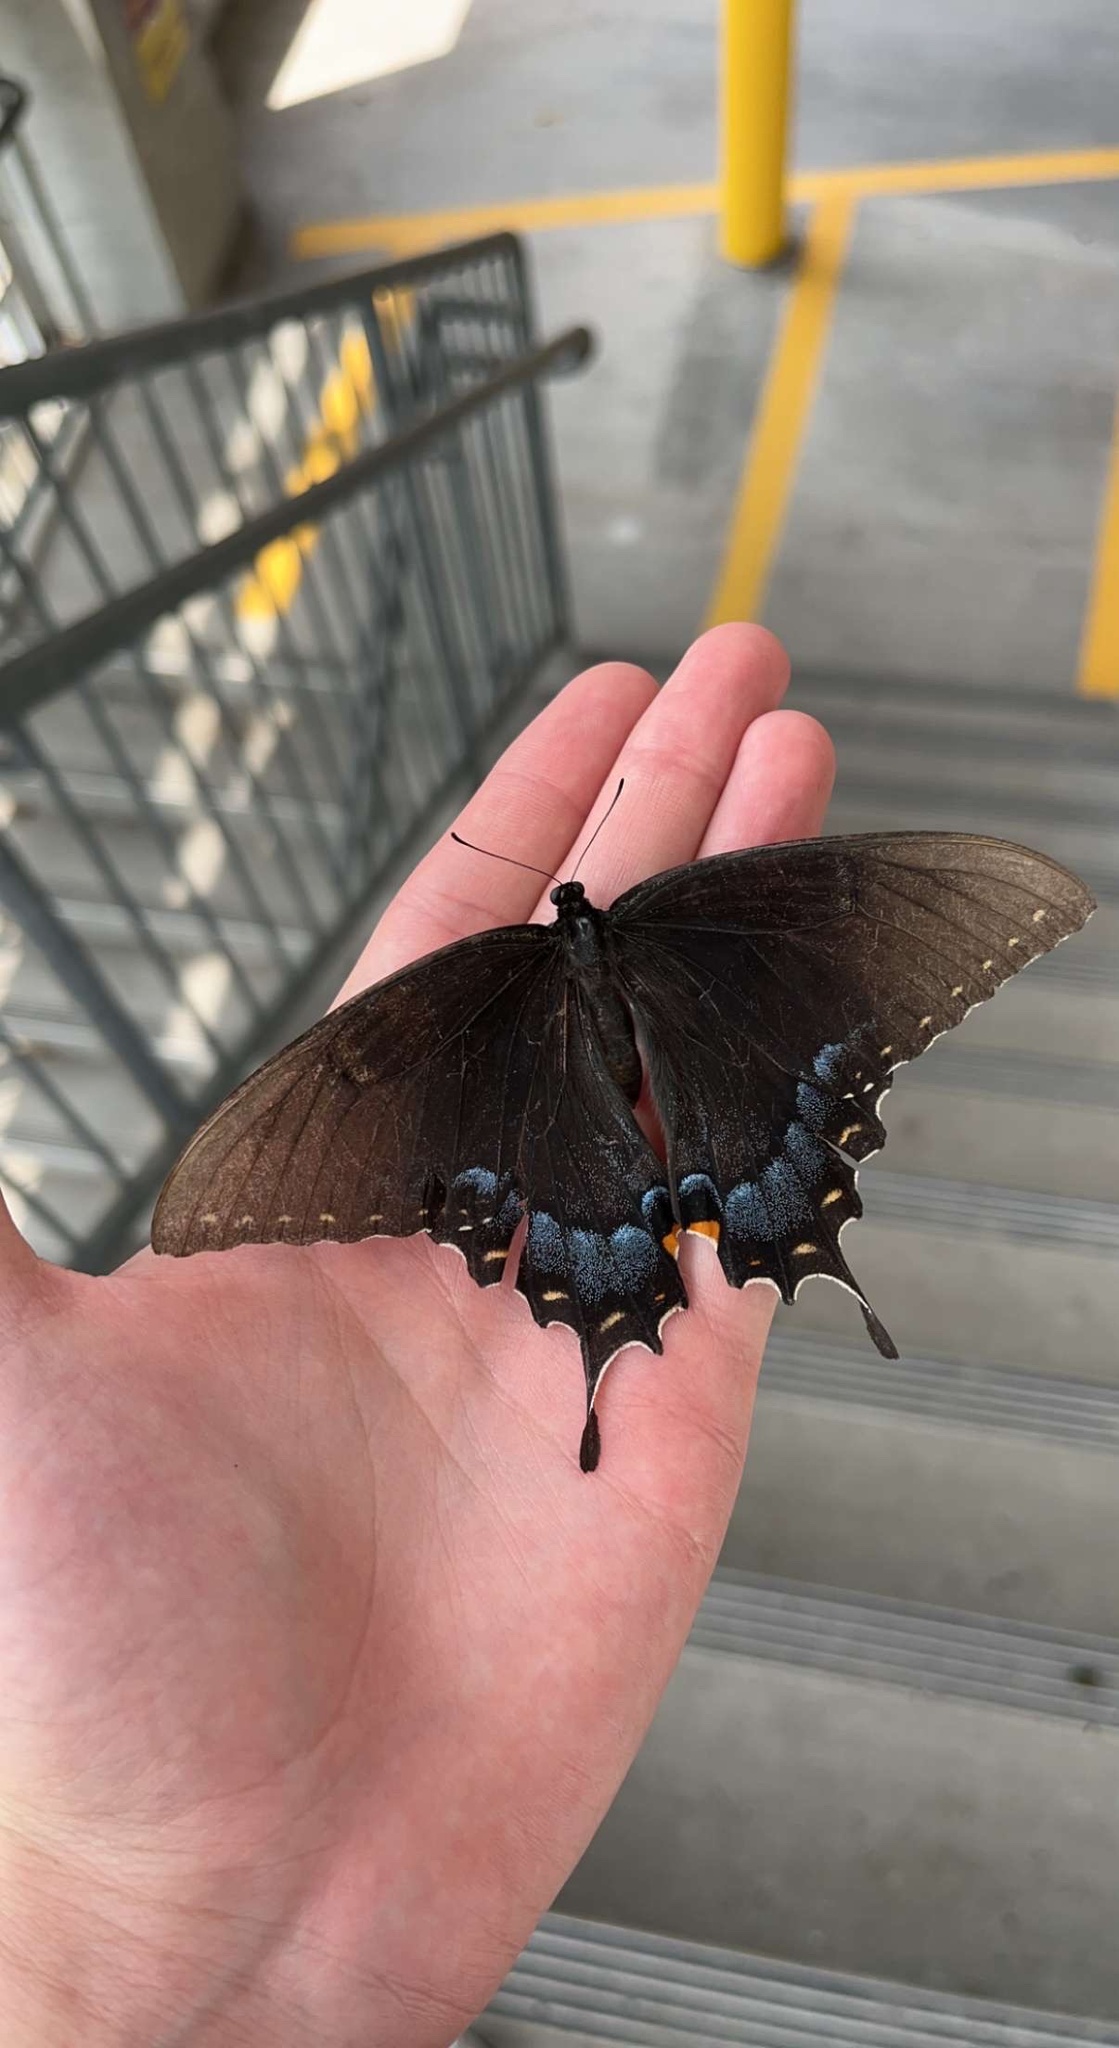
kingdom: Animalia
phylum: Arthropoda
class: Insecta
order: Lepidoptera
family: Papilionidae
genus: Papilio
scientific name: Papilio glaucus
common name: Tiger swallowtail
